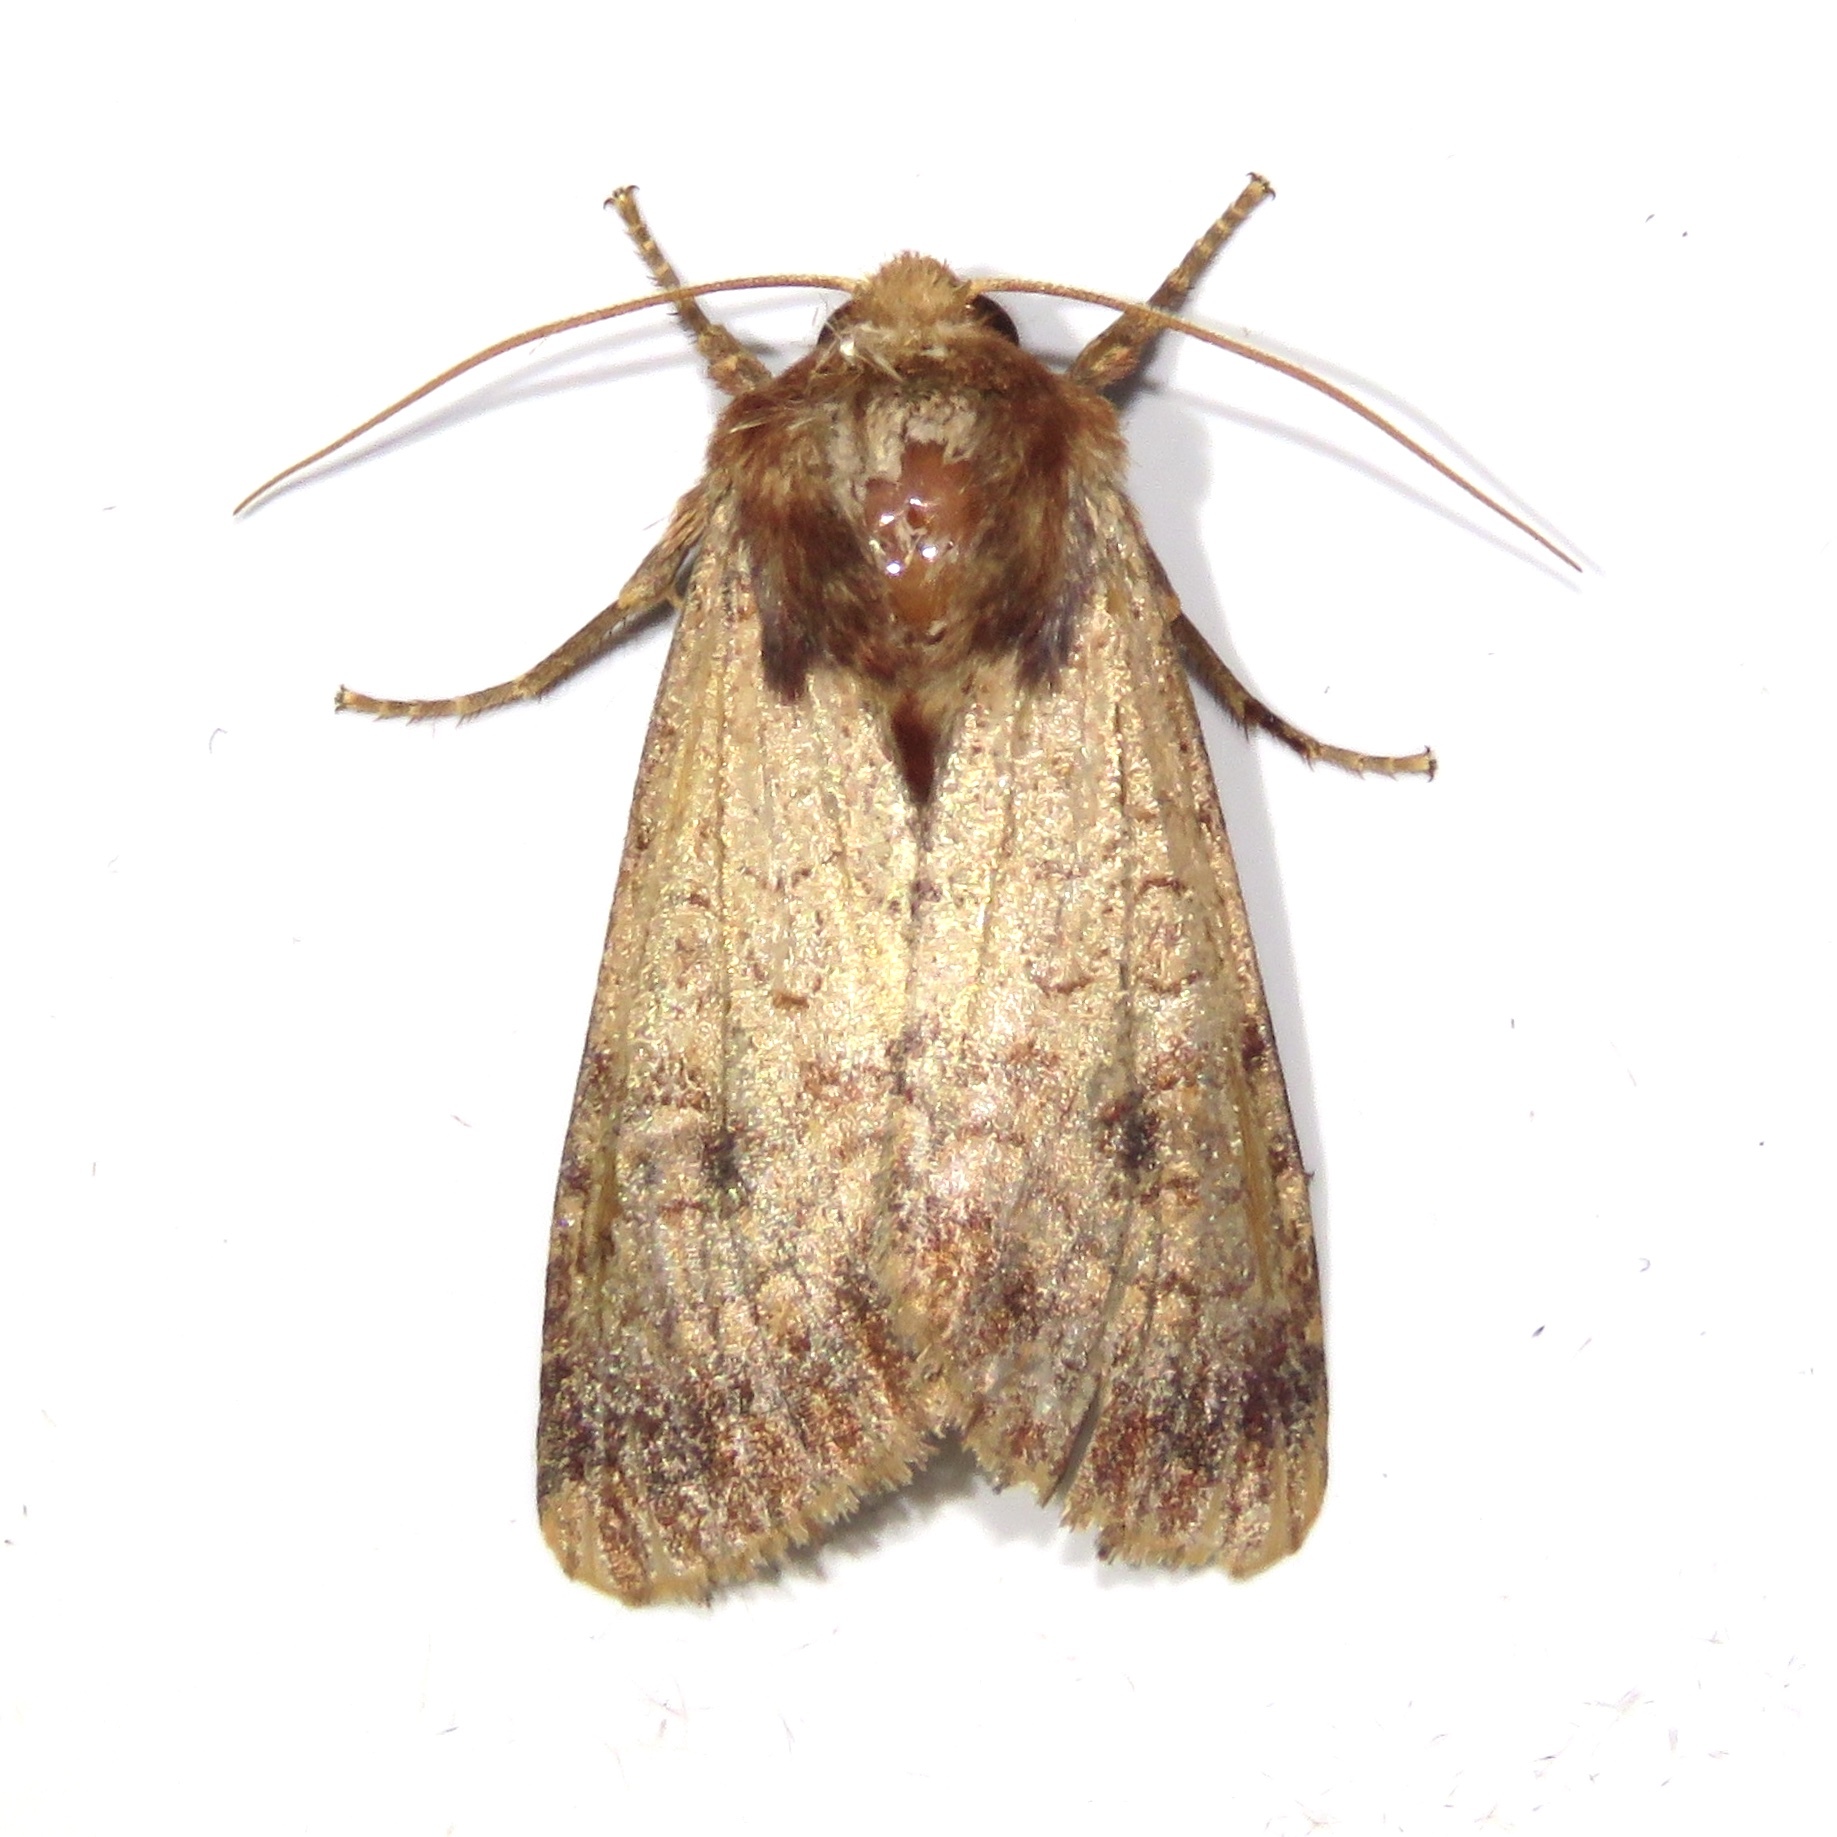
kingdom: Animalia
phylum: Arthropoda
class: Insecta
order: Lepidoptera
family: Noctuidae
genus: Sideridis
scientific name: Sideridis rosea
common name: Rosewing moth
